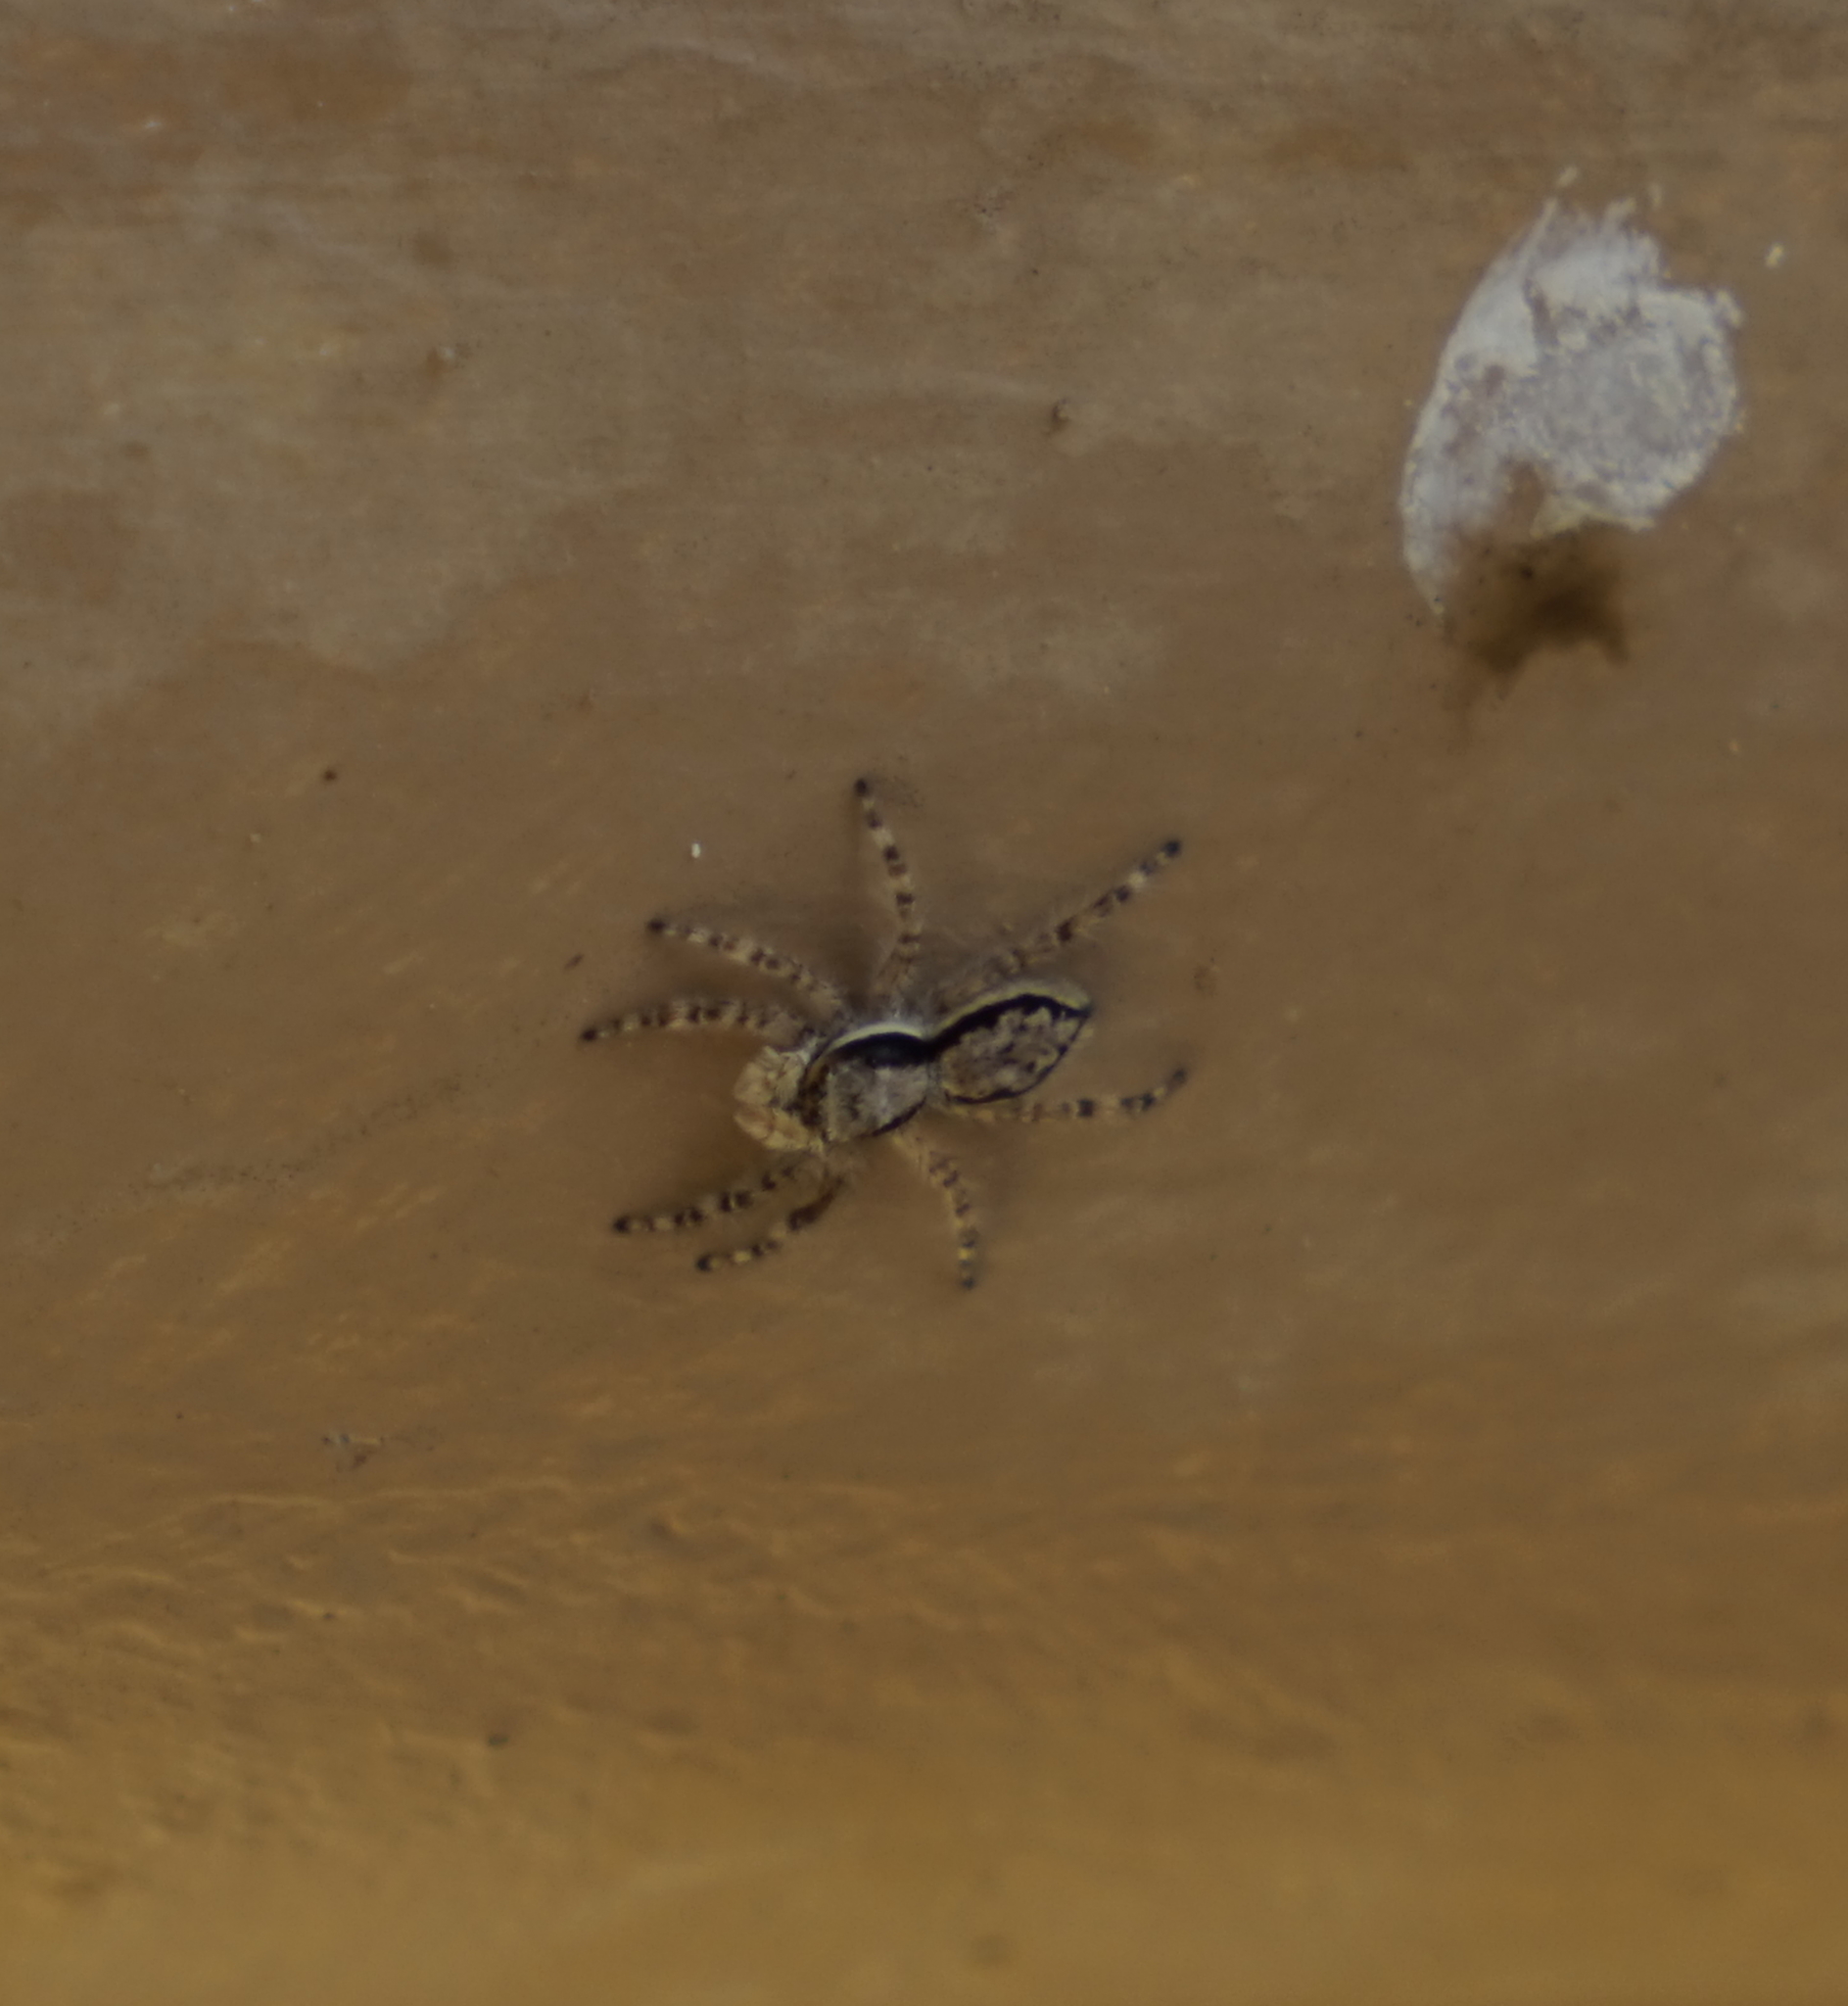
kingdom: Animalia
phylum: Arthropoda
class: Arachnida
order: Araneae
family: Salticidae
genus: Menemerus
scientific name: Menemerus bivittatus
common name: Gray wall jumper
